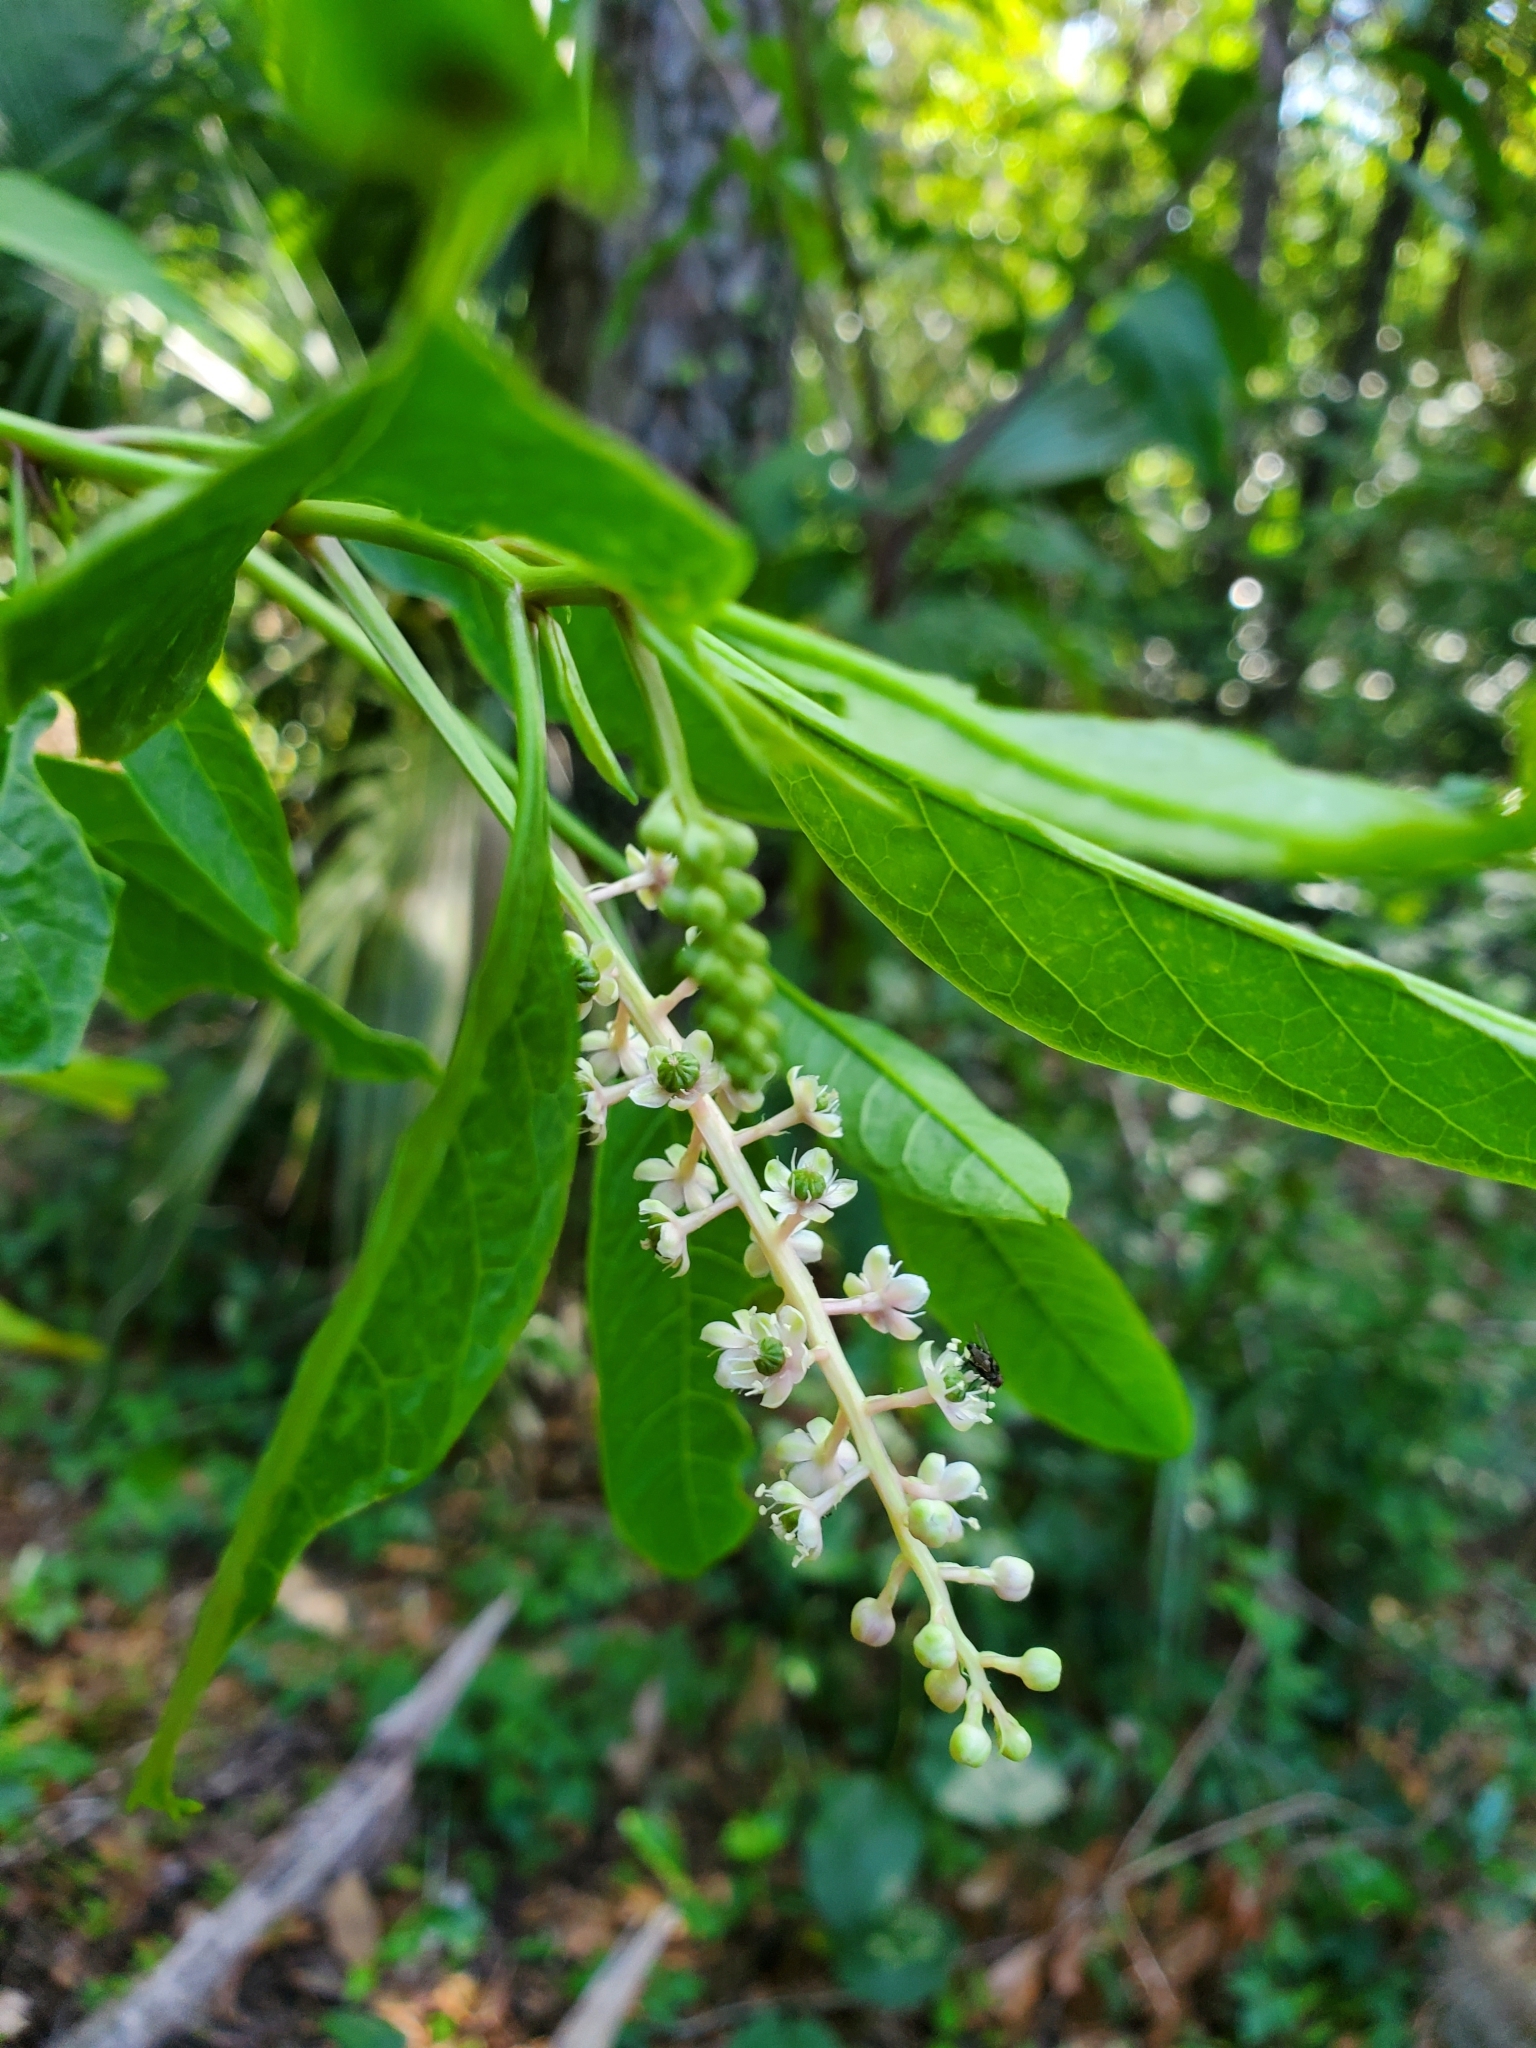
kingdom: Plantae
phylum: Tracheophyta
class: Magnoliopsida
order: Caryophyllales
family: Phytolaccaceae
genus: Phytolacca
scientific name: Phytolacca americana
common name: American pokeweed
